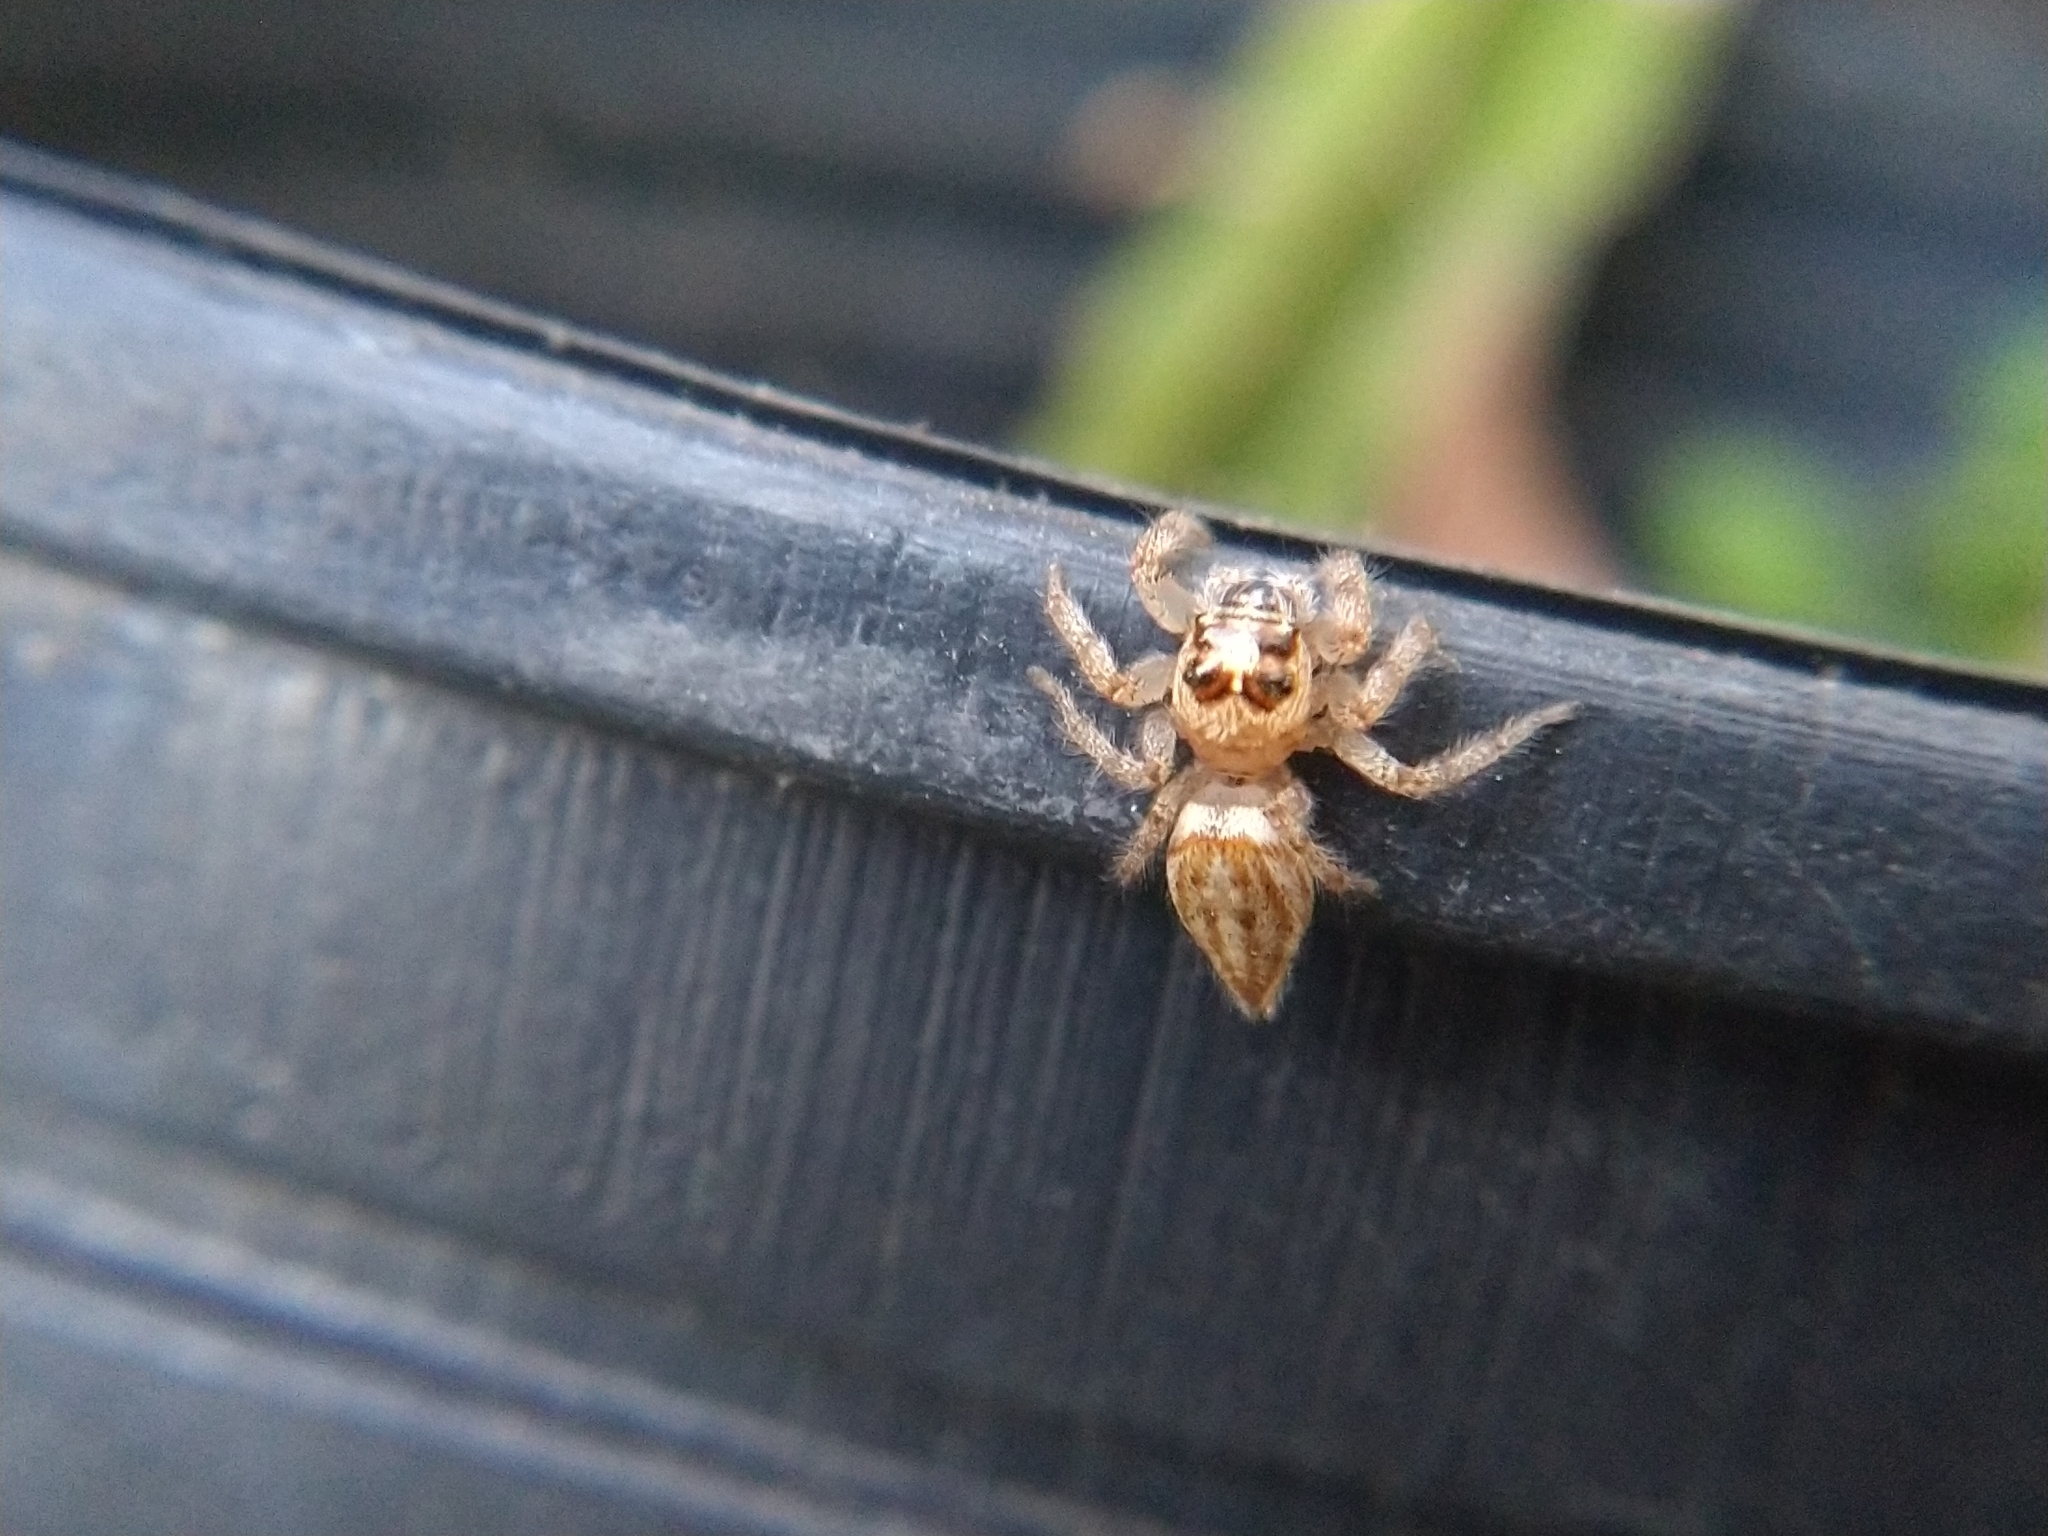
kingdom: Animalia
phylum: Arthropoda
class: Arachnida
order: Araneae
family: Salticidae
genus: Colonus
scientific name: Colonus hesperus
